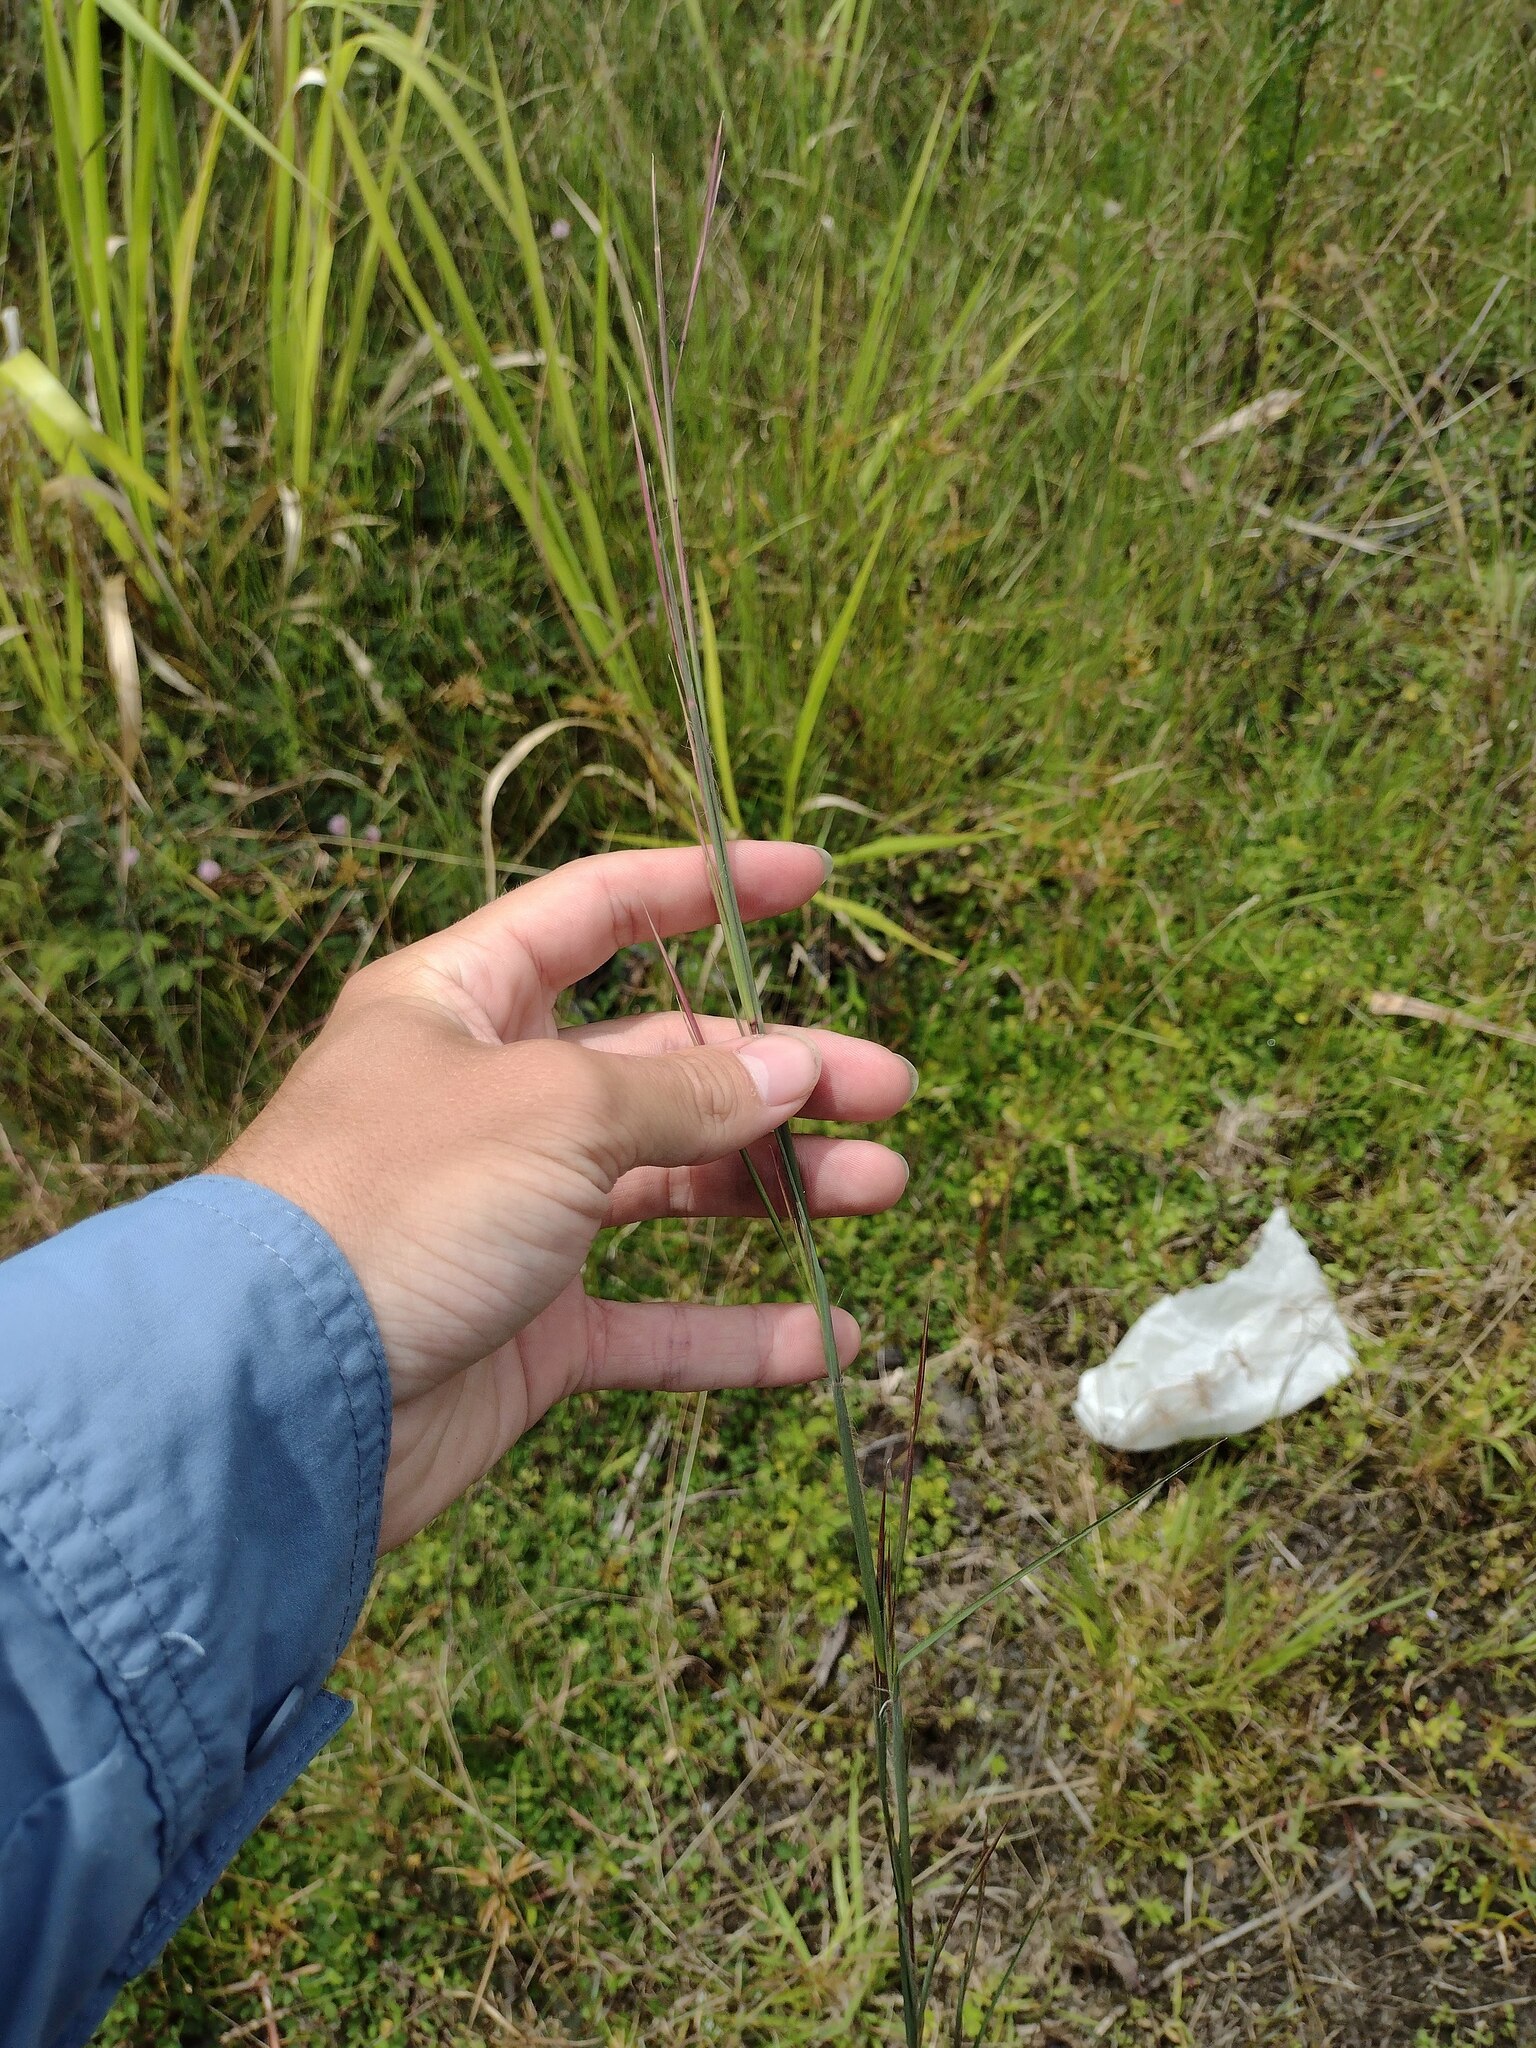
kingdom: Plantae
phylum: Tracheophyta
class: Liliopsida
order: Poales
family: Poaceae
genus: Andropogon
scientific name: Andropogon virginicus
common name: Broomsedge bluestem
